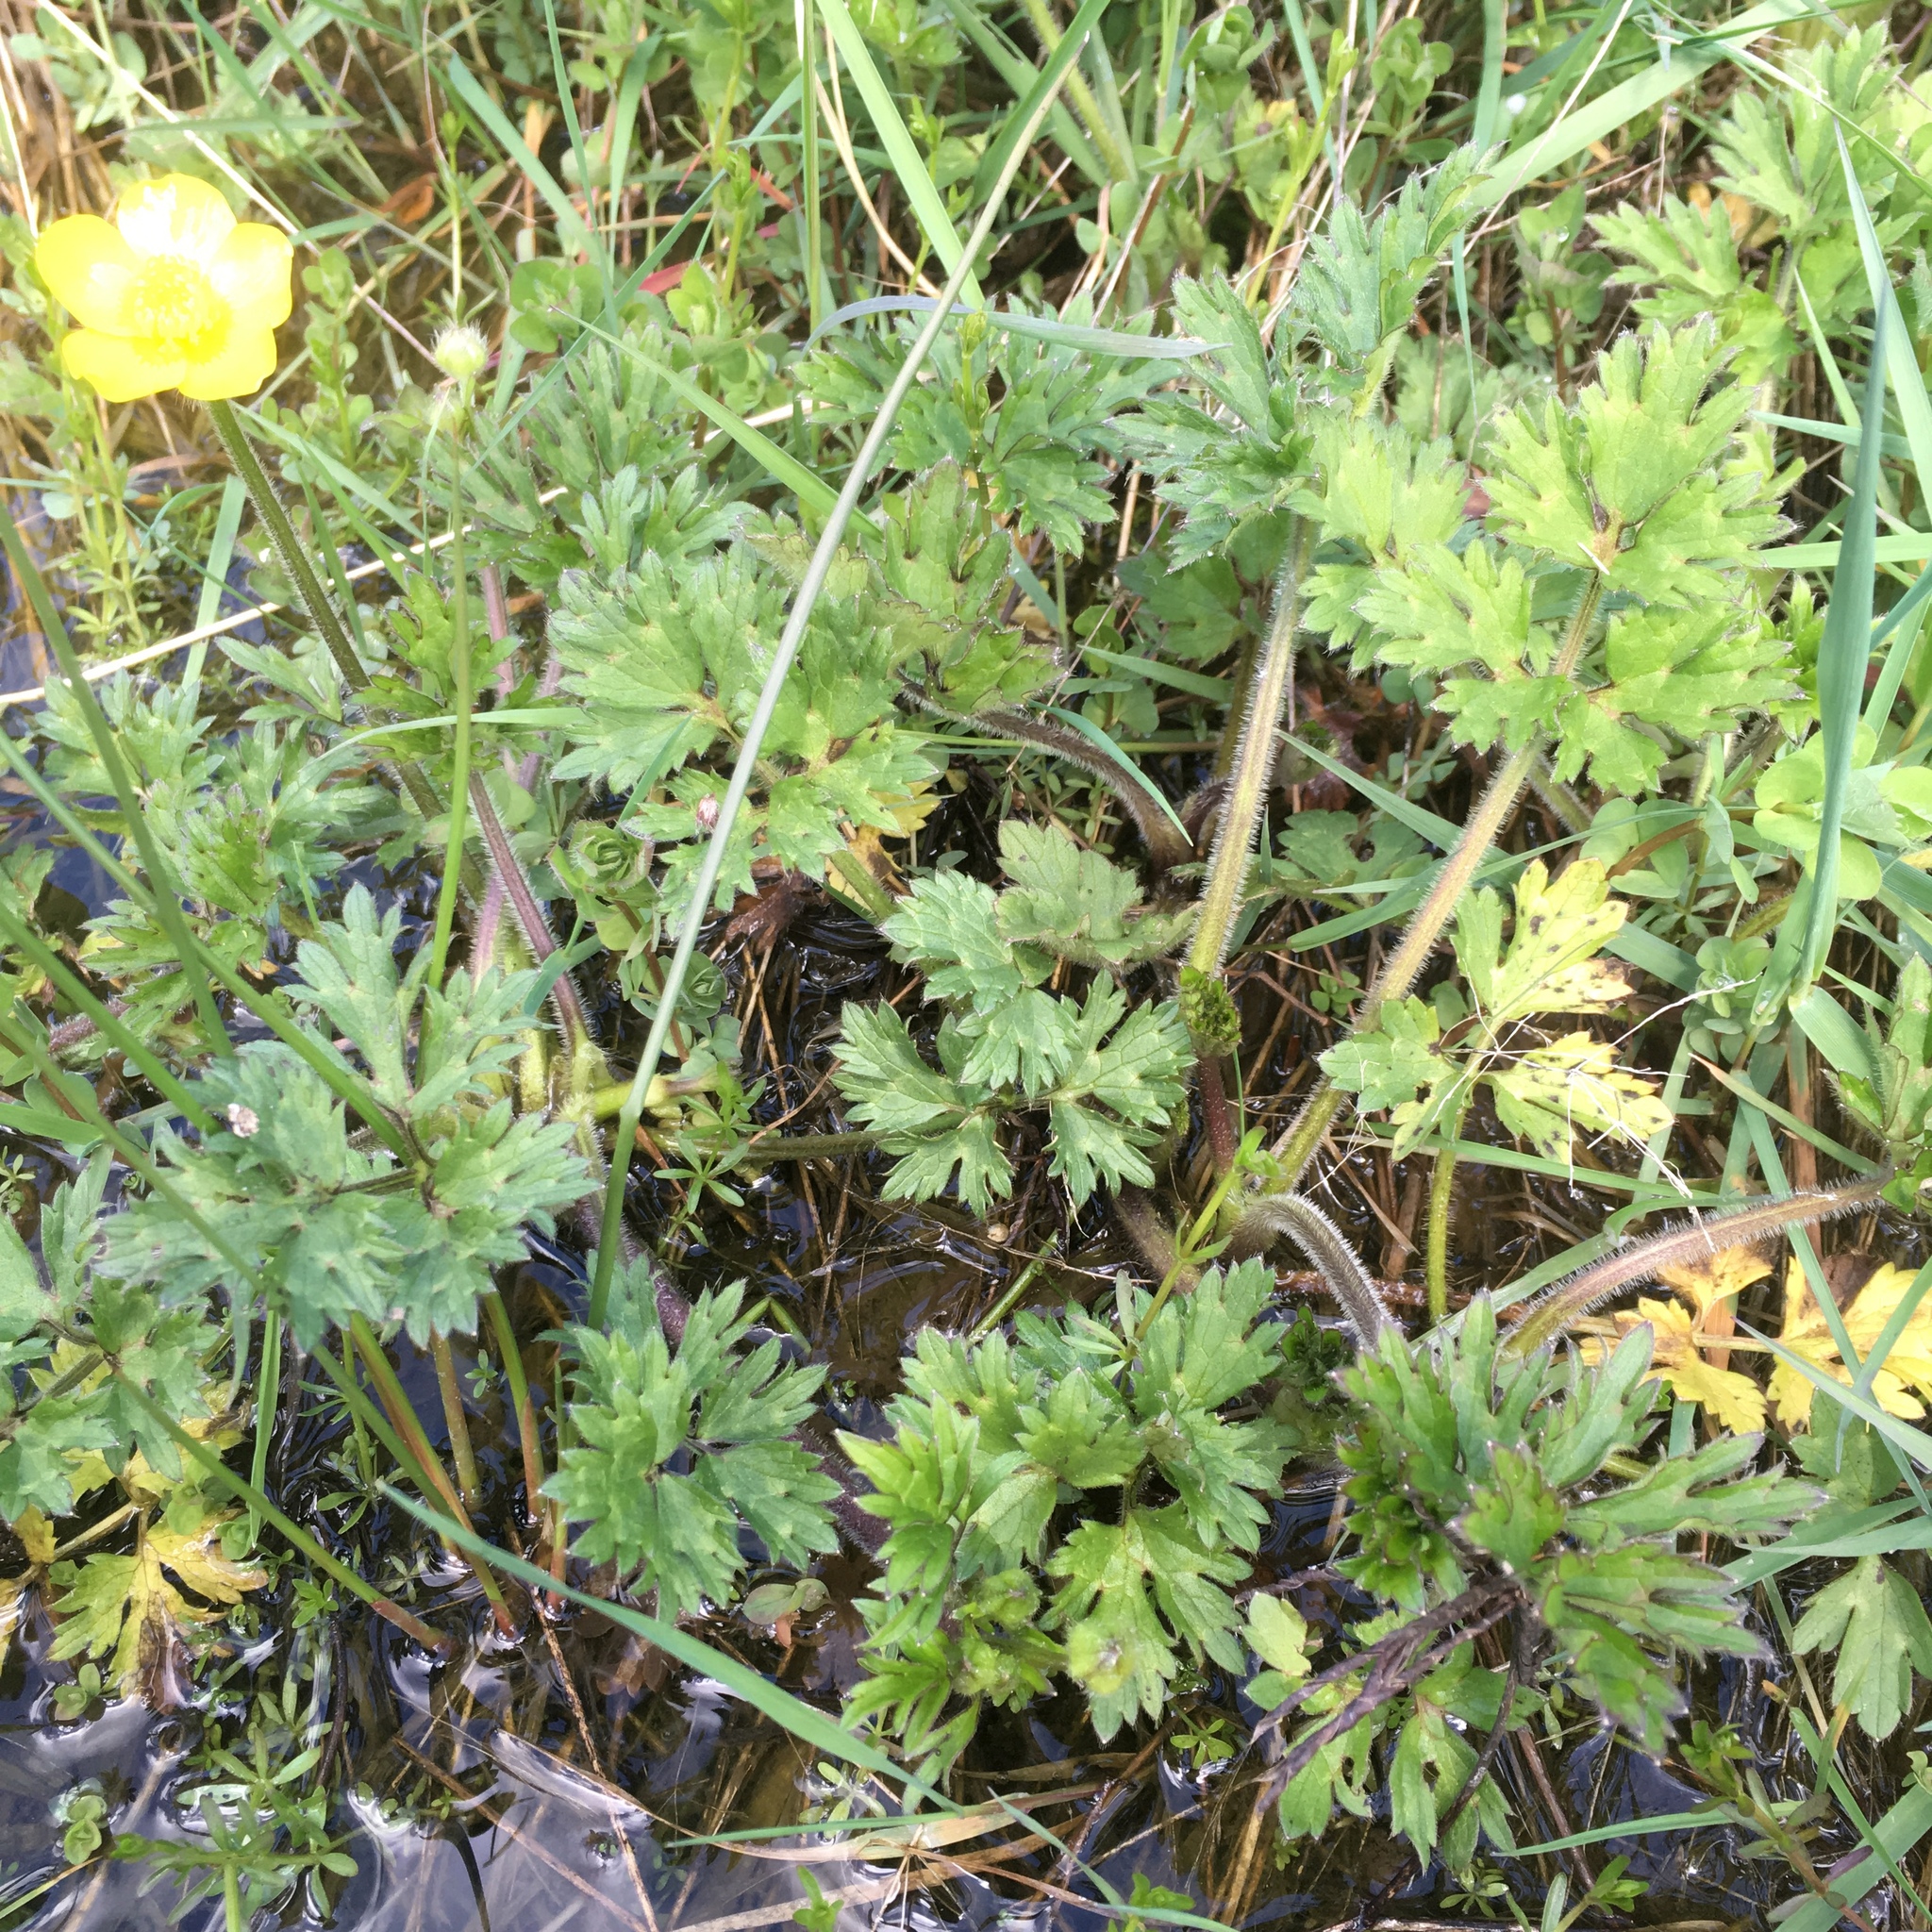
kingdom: Plantae
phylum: Tracheophyta
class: Magnoliopsida
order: Ranunculales
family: Ranunculaceae
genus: Ranunculus
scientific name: Ranunculus repens
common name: Creeping buttercup
